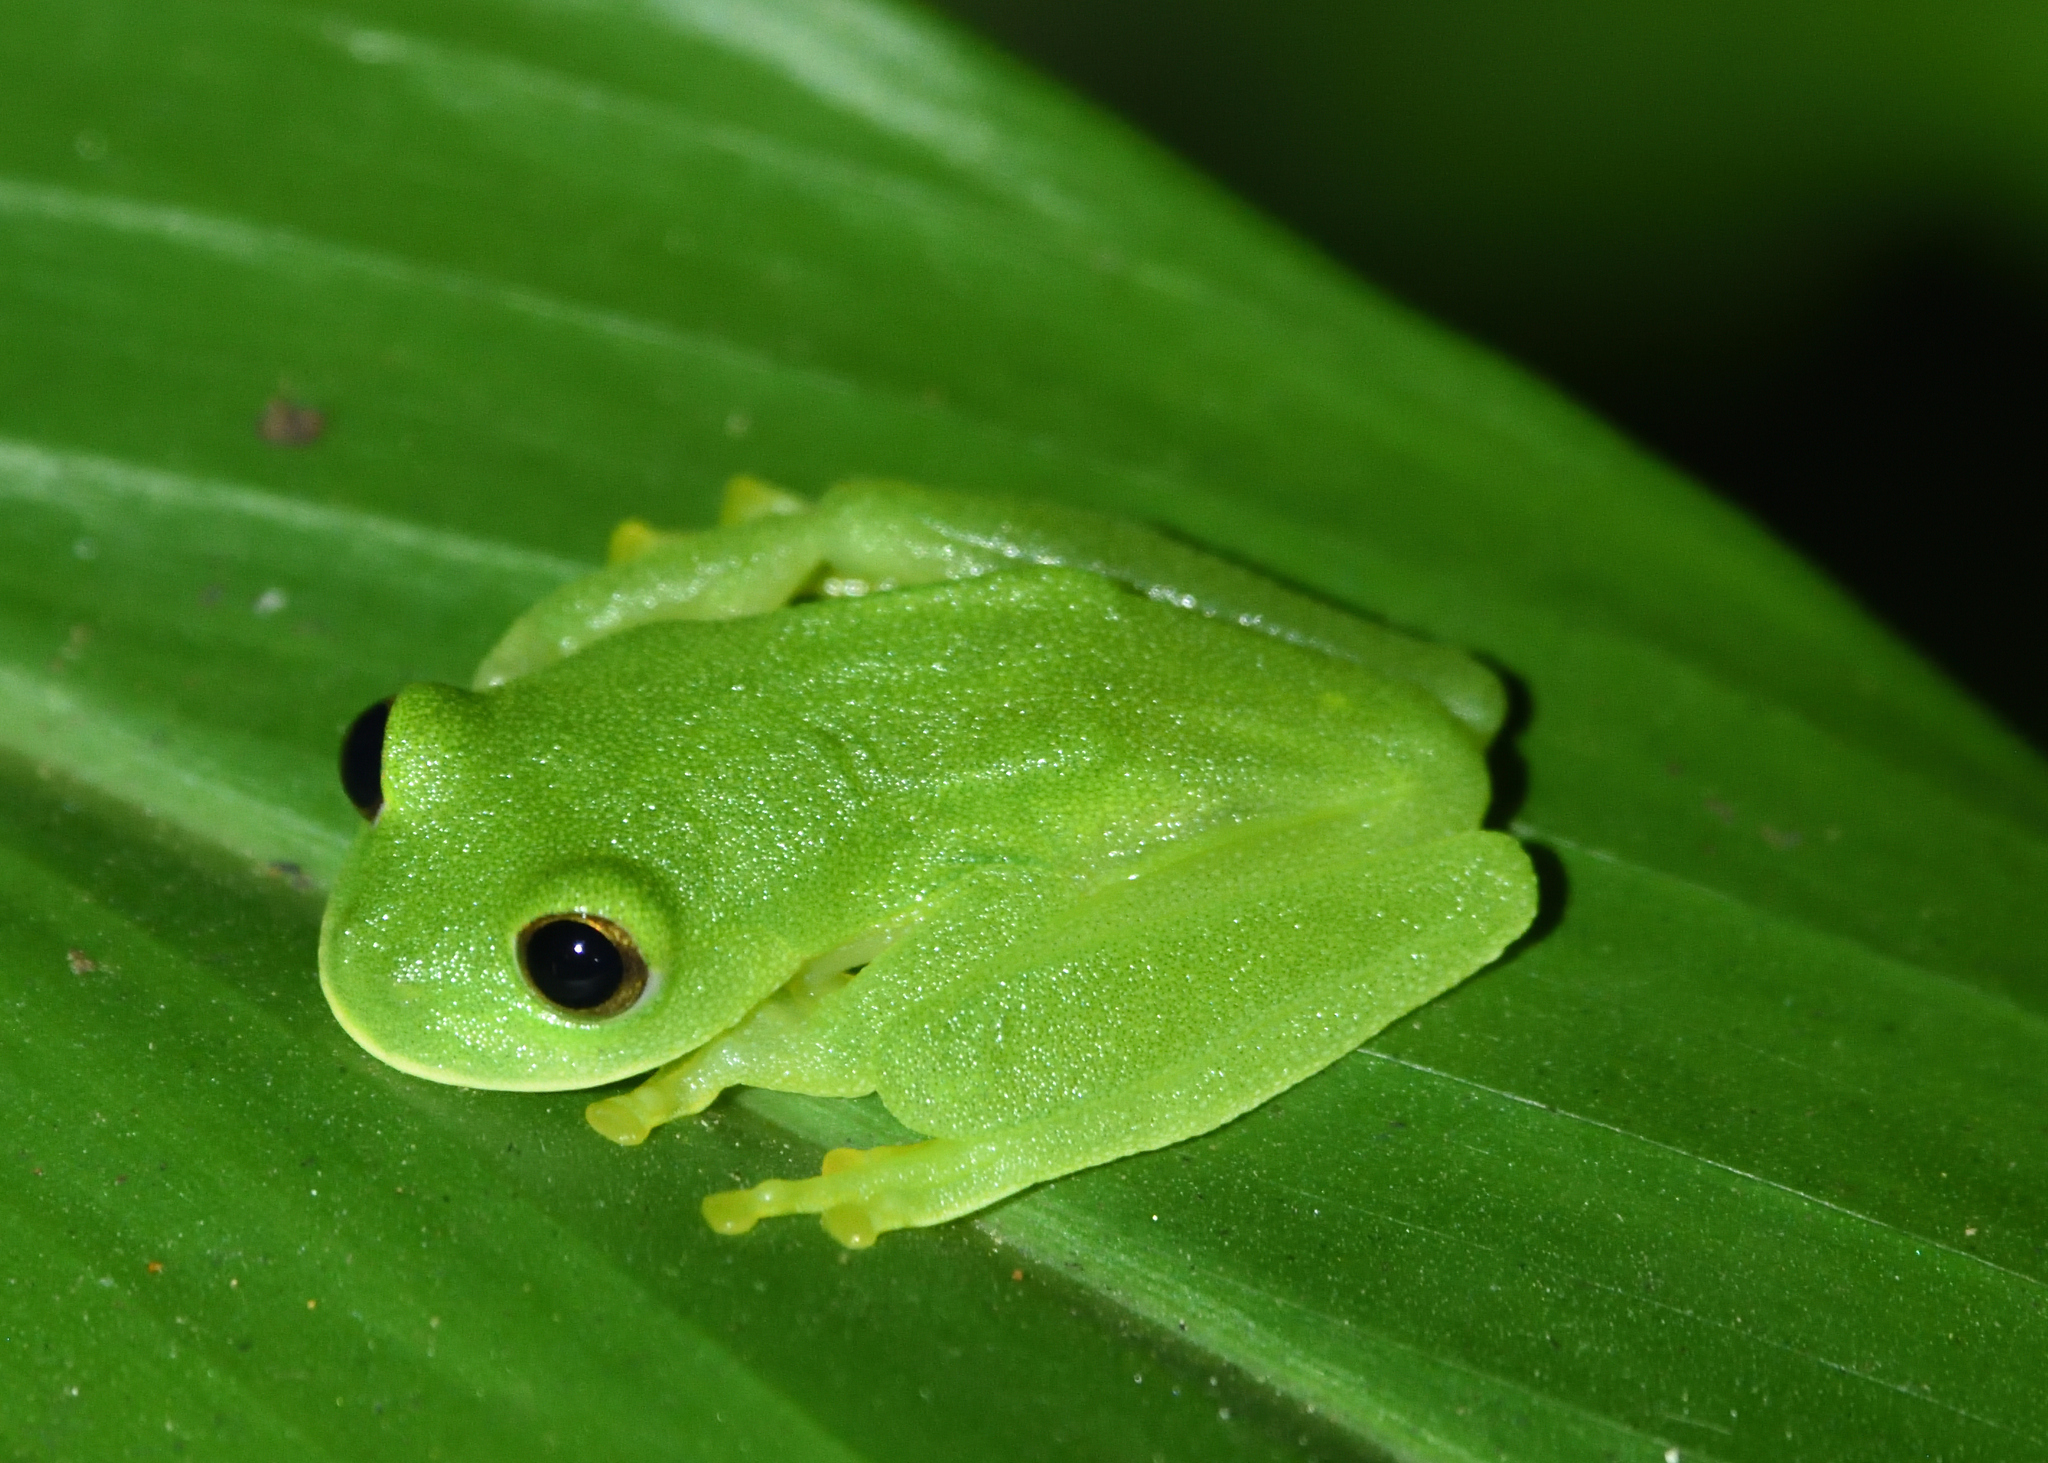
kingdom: Animalia
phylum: Chordata
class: Amphibia
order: Anura
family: Centrolenidae
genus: Ikakogi
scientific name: Ikakogi tayrona
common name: Magdalena giant glass frog
